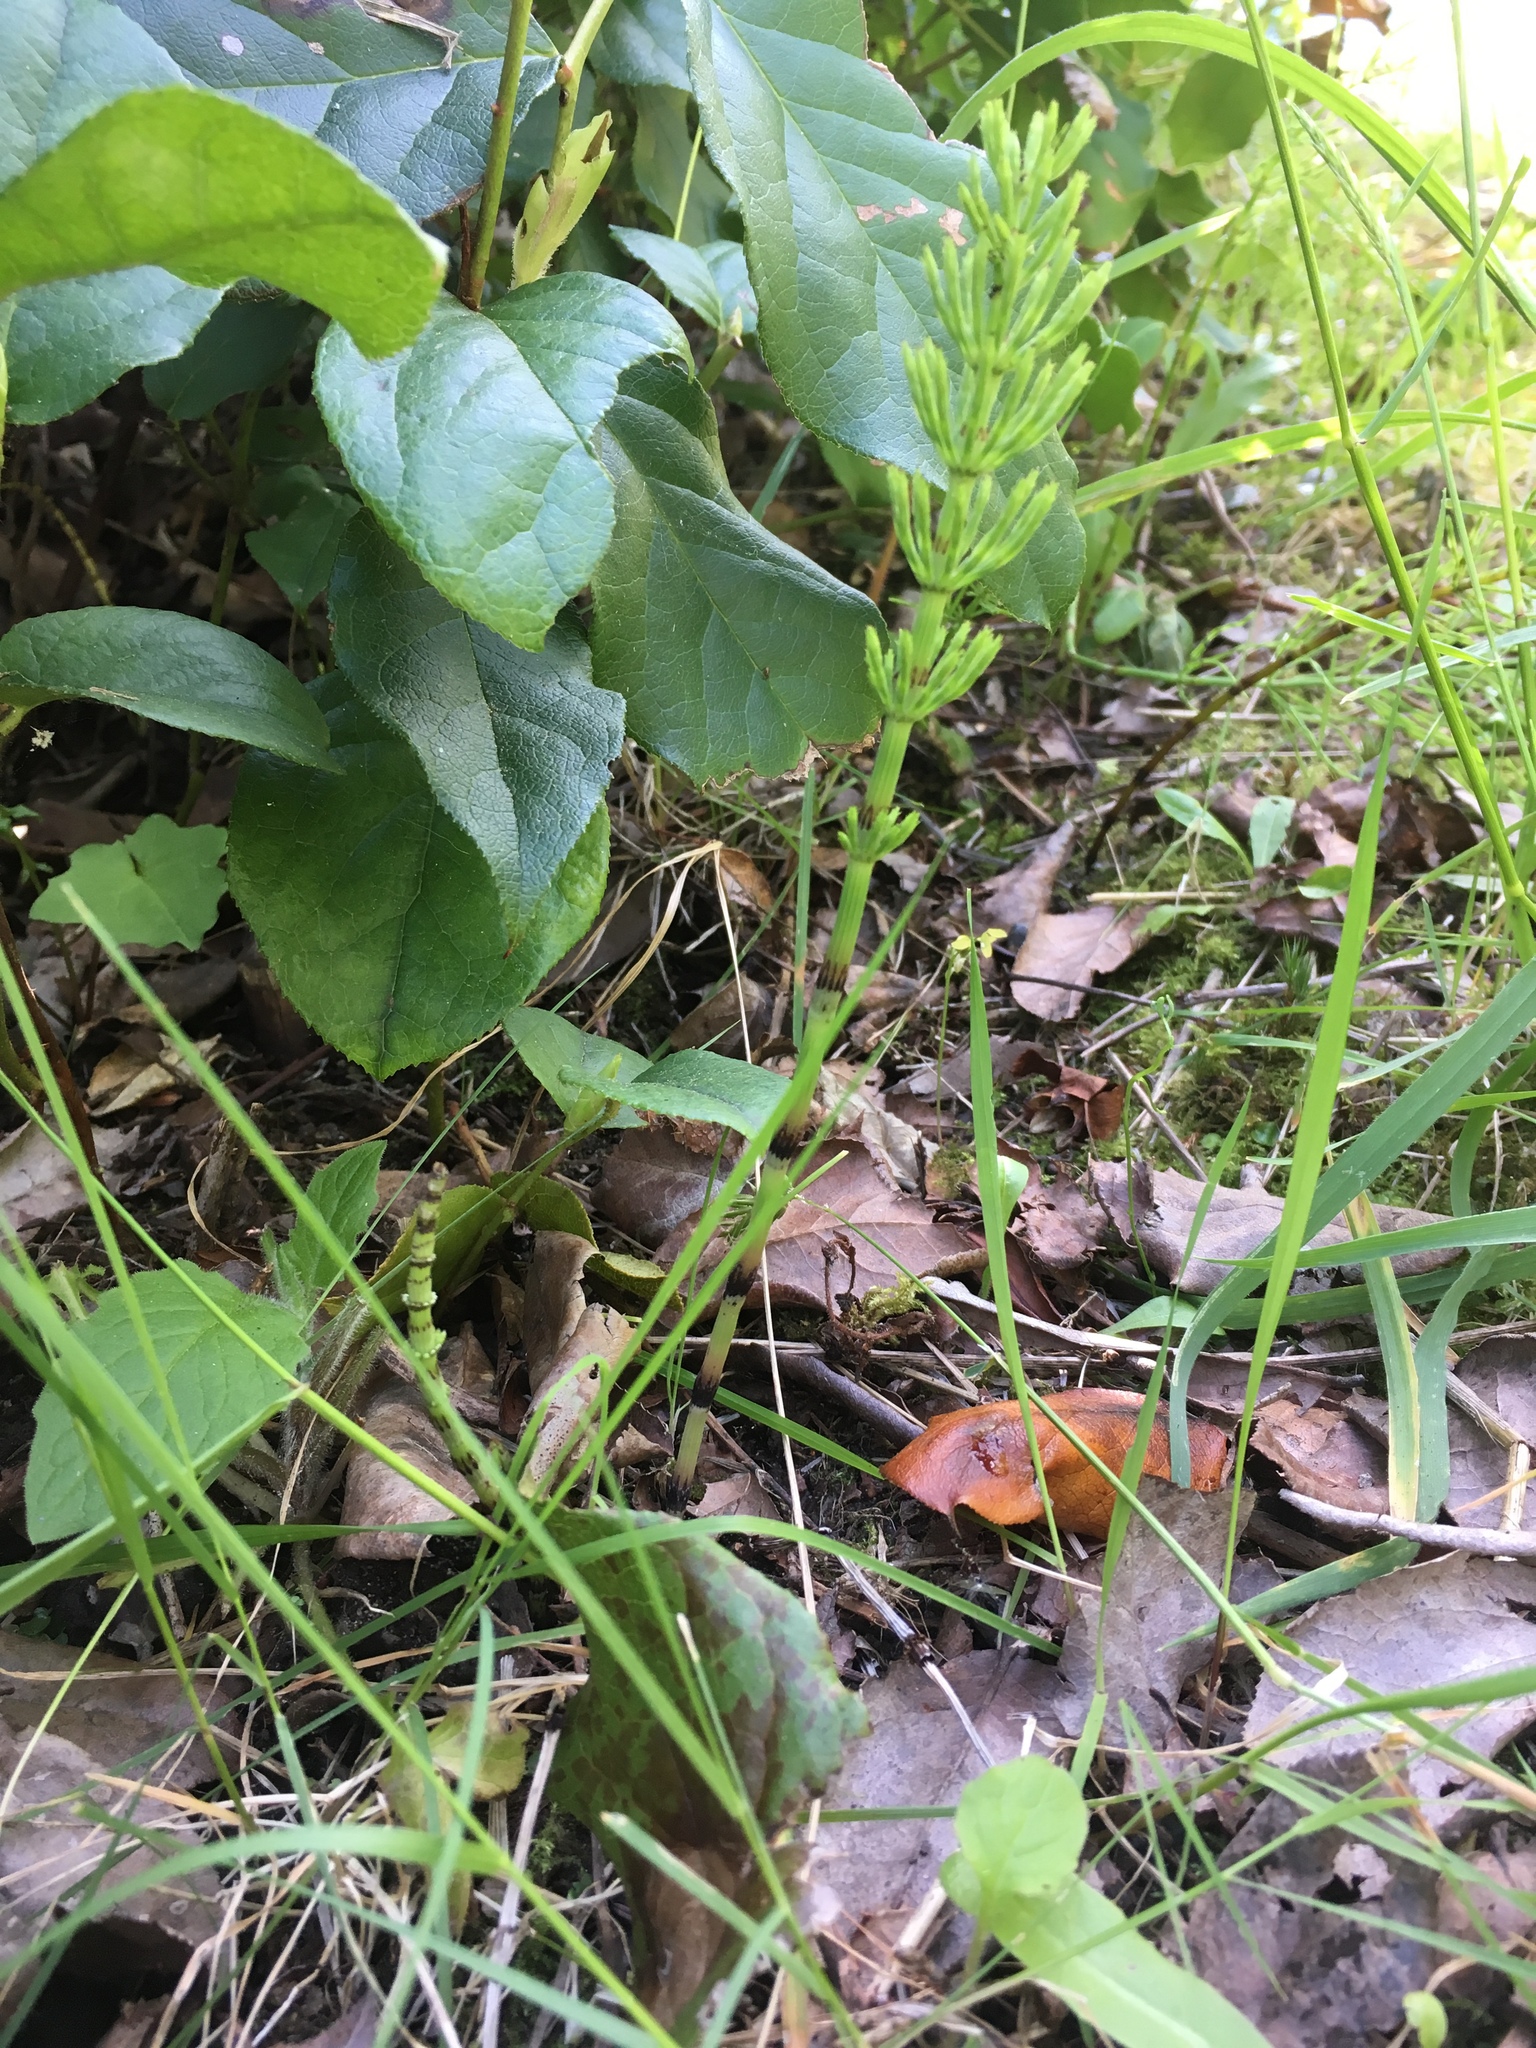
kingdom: Plantae
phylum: Tracheophyta
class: Polypodiopsida
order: Equisetales
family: Equisetaceae
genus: Equisetum
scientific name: Equisetum arvense
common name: Field horsetail
